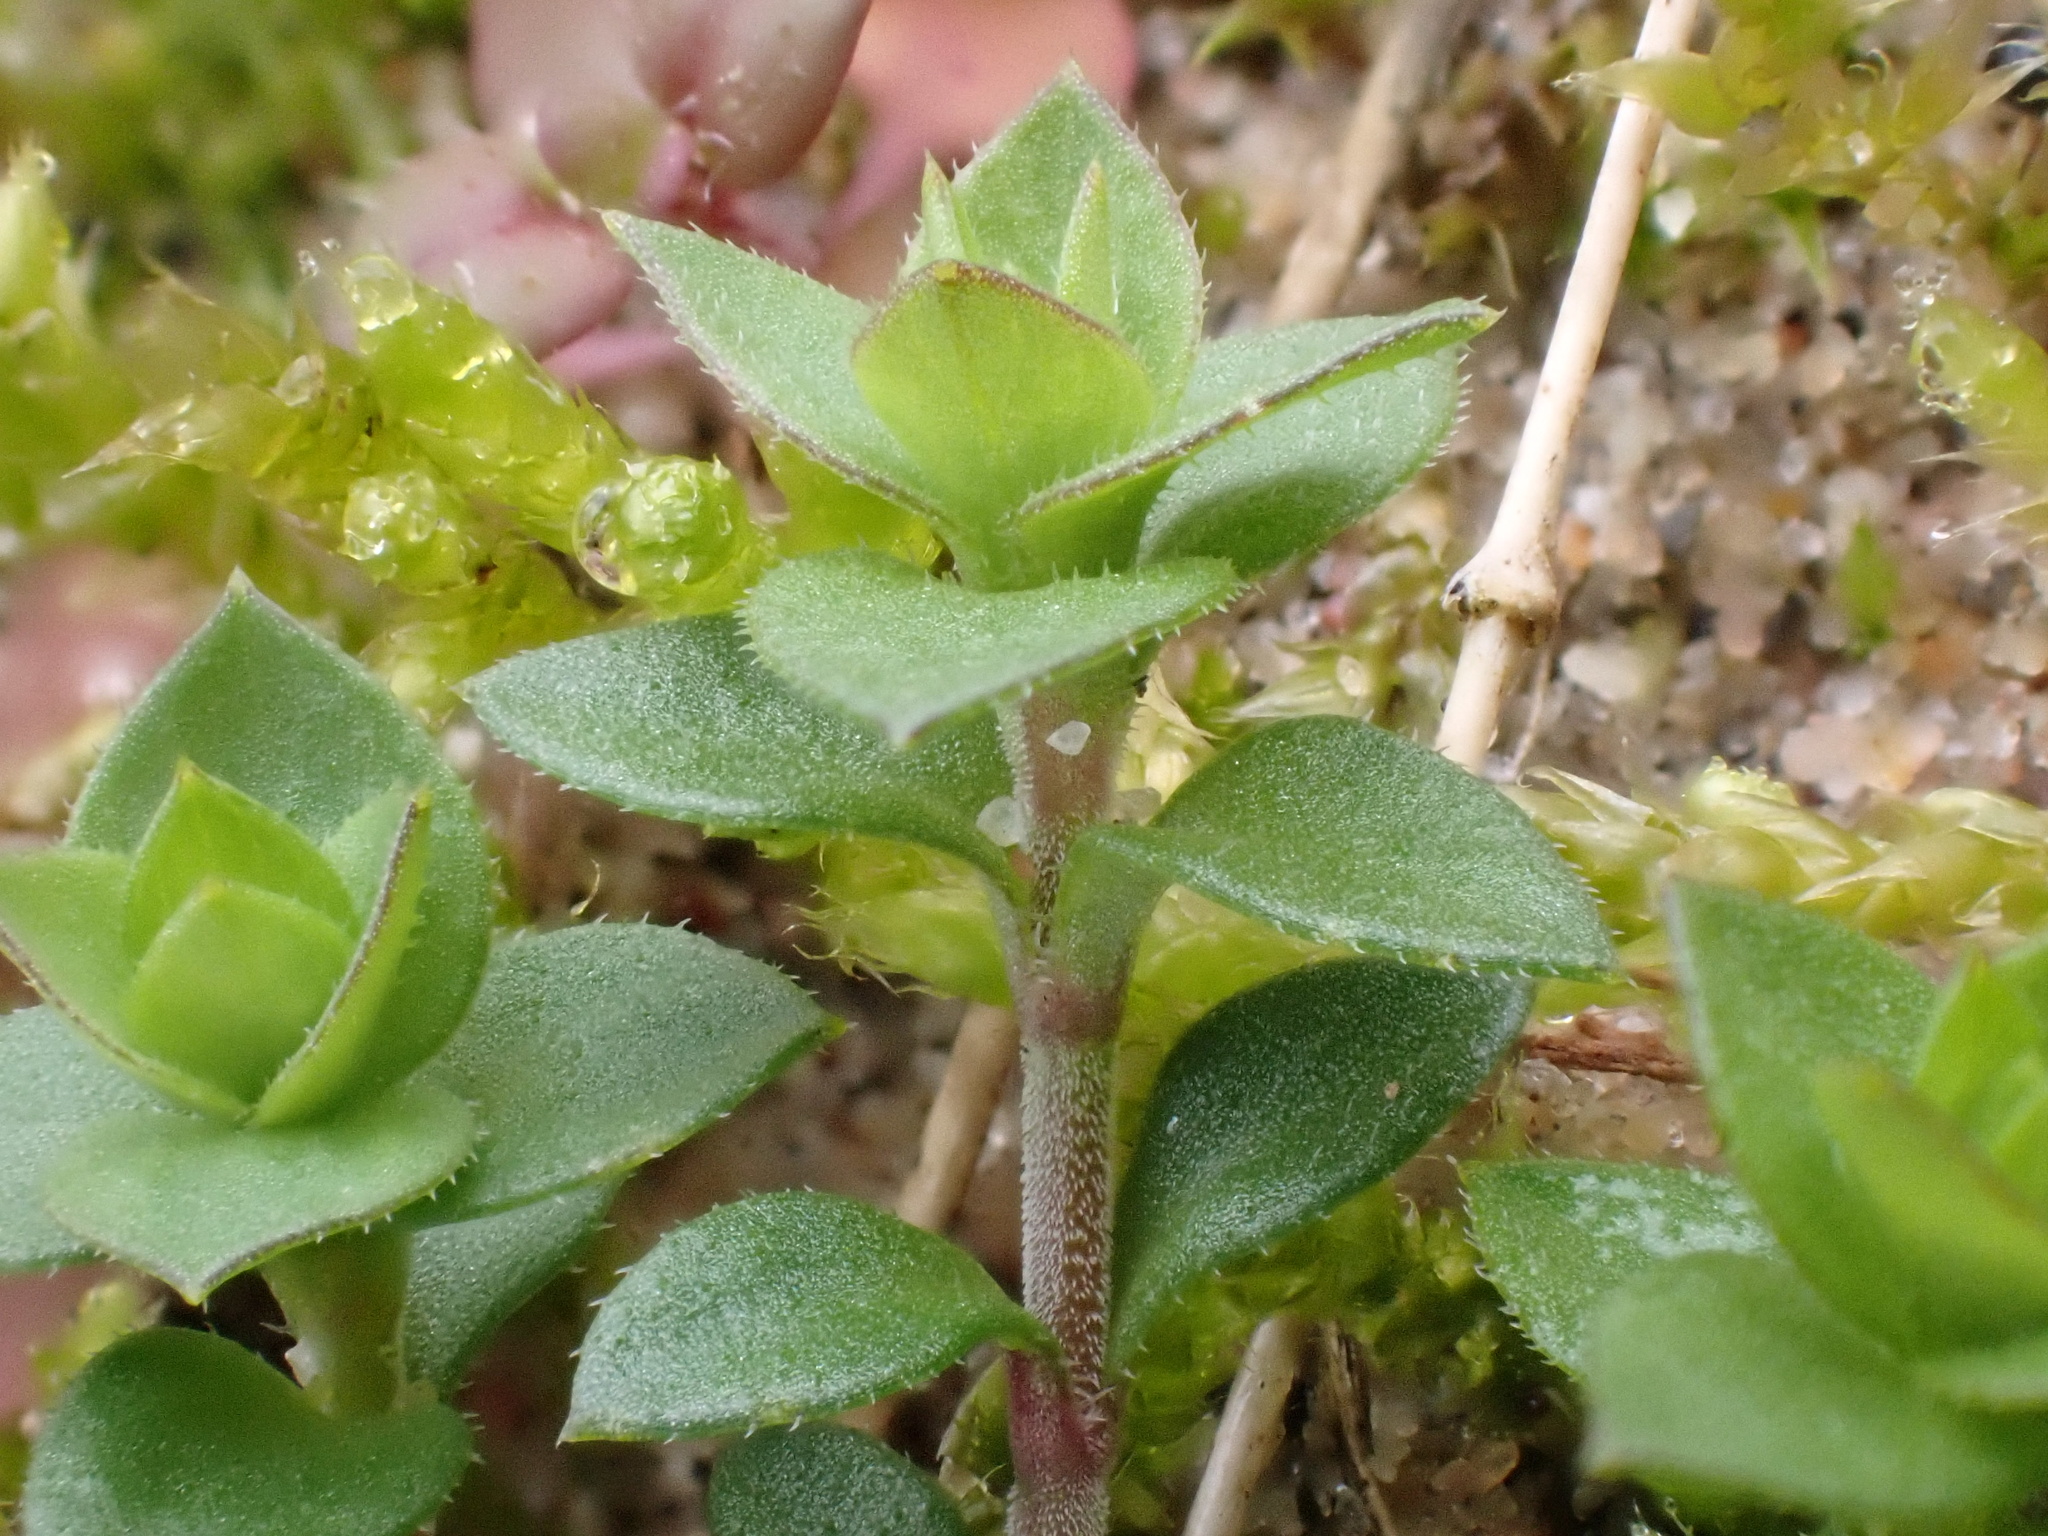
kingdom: Plantae
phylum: Tracheophyta
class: Magnoliopsida
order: Caryophyllales
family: Caryophyllaceae
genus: Arenaria
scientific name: Arenaria serpyllifolia
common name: Thyme-leaved sandwort
